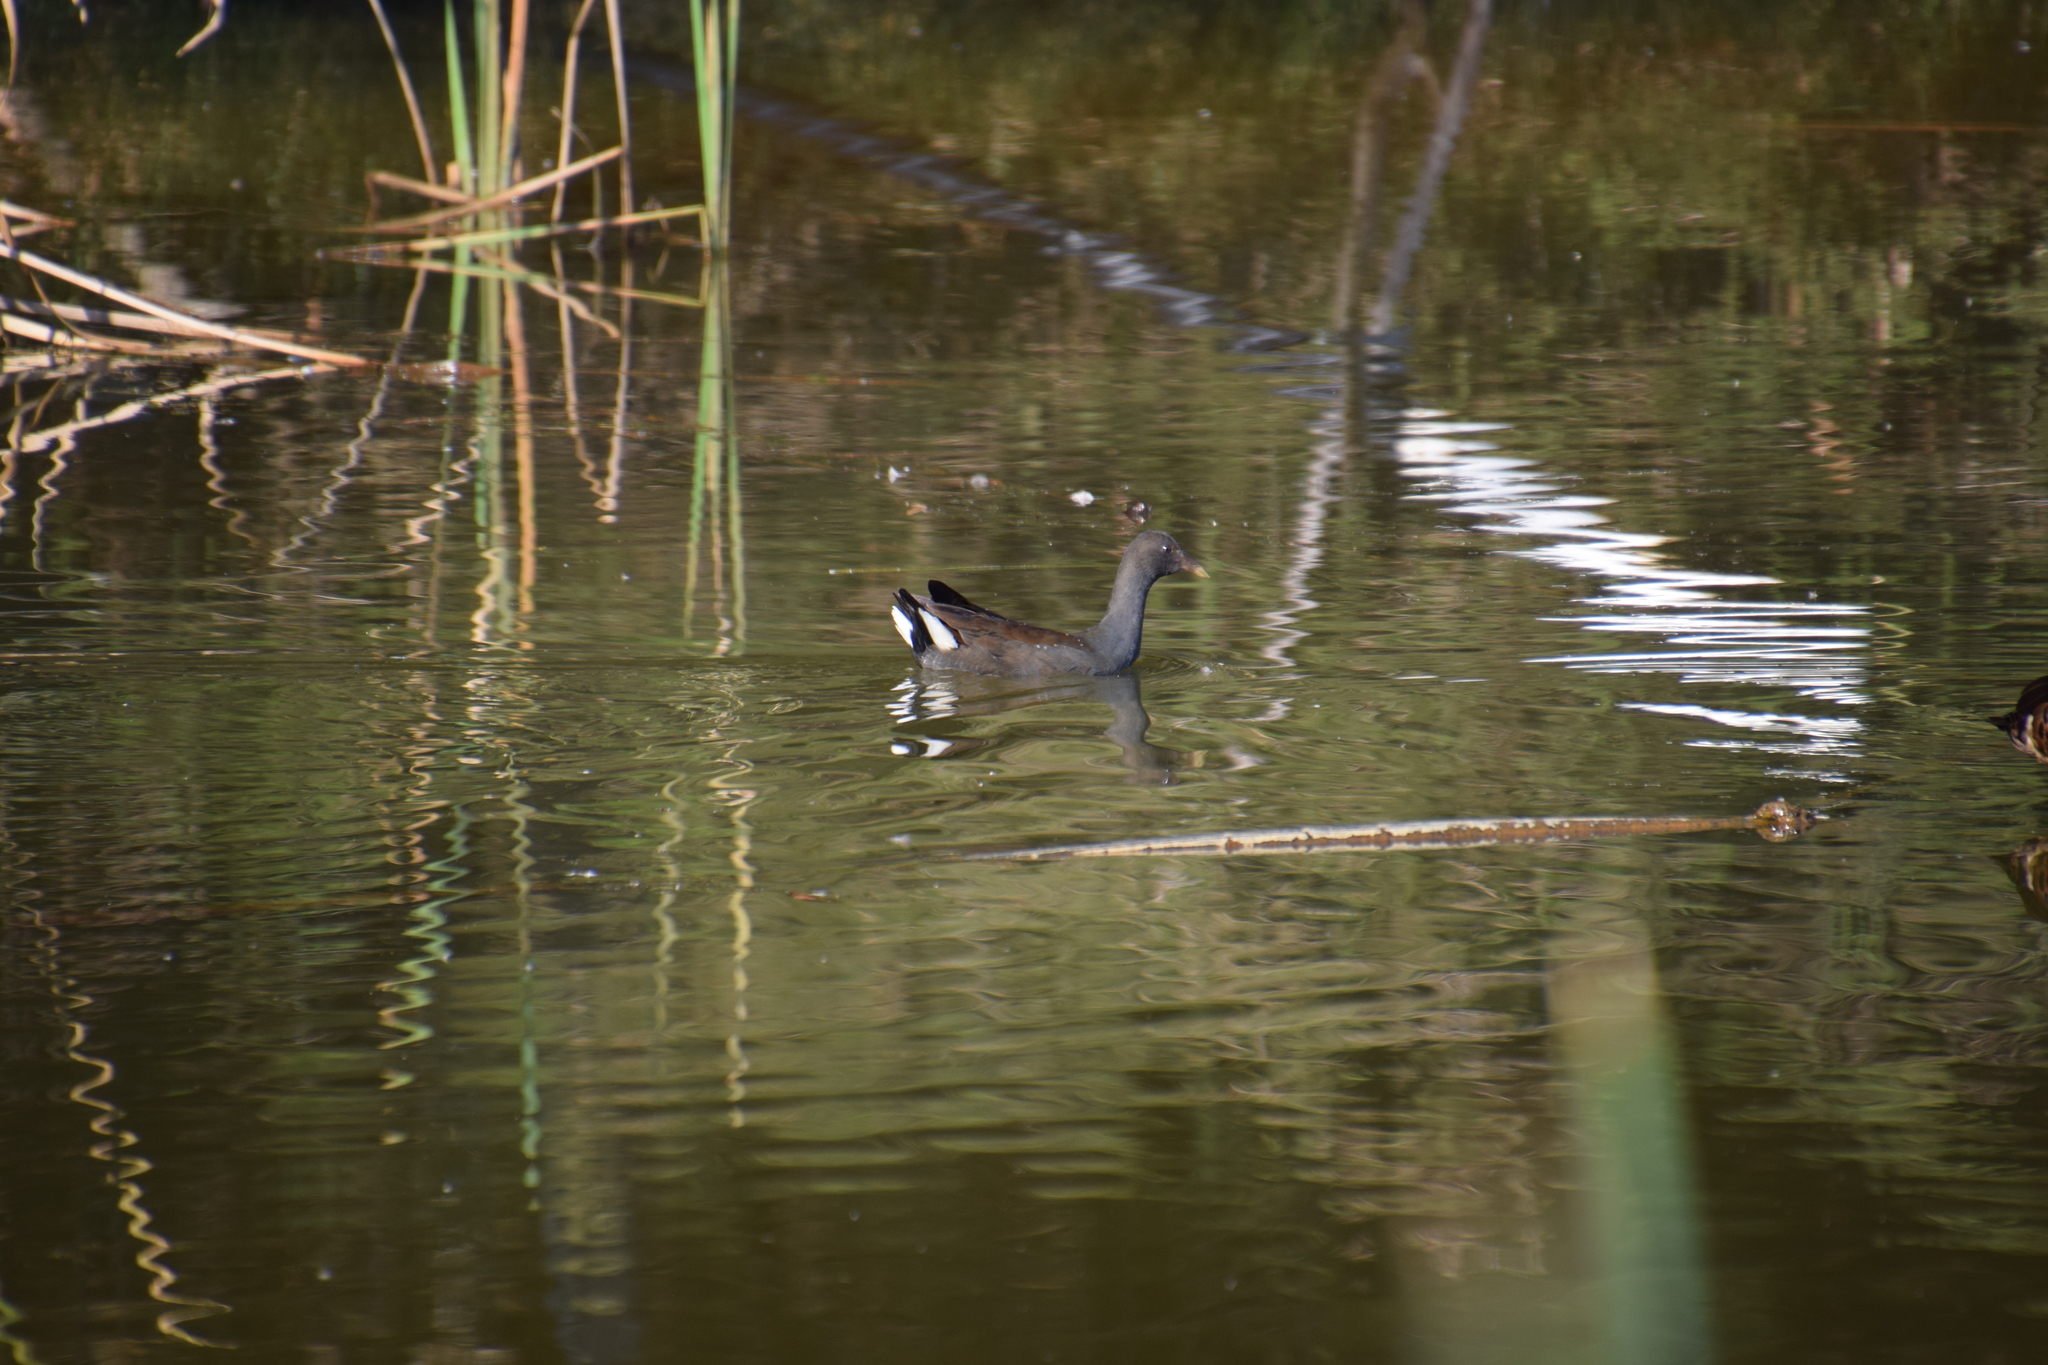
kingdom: Animalia
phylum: Chordata
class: Aves
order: Gruiformes
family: Rallidae
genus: Gallinula
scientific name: Gallinula tenebrosa
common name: Dusky moorhen
